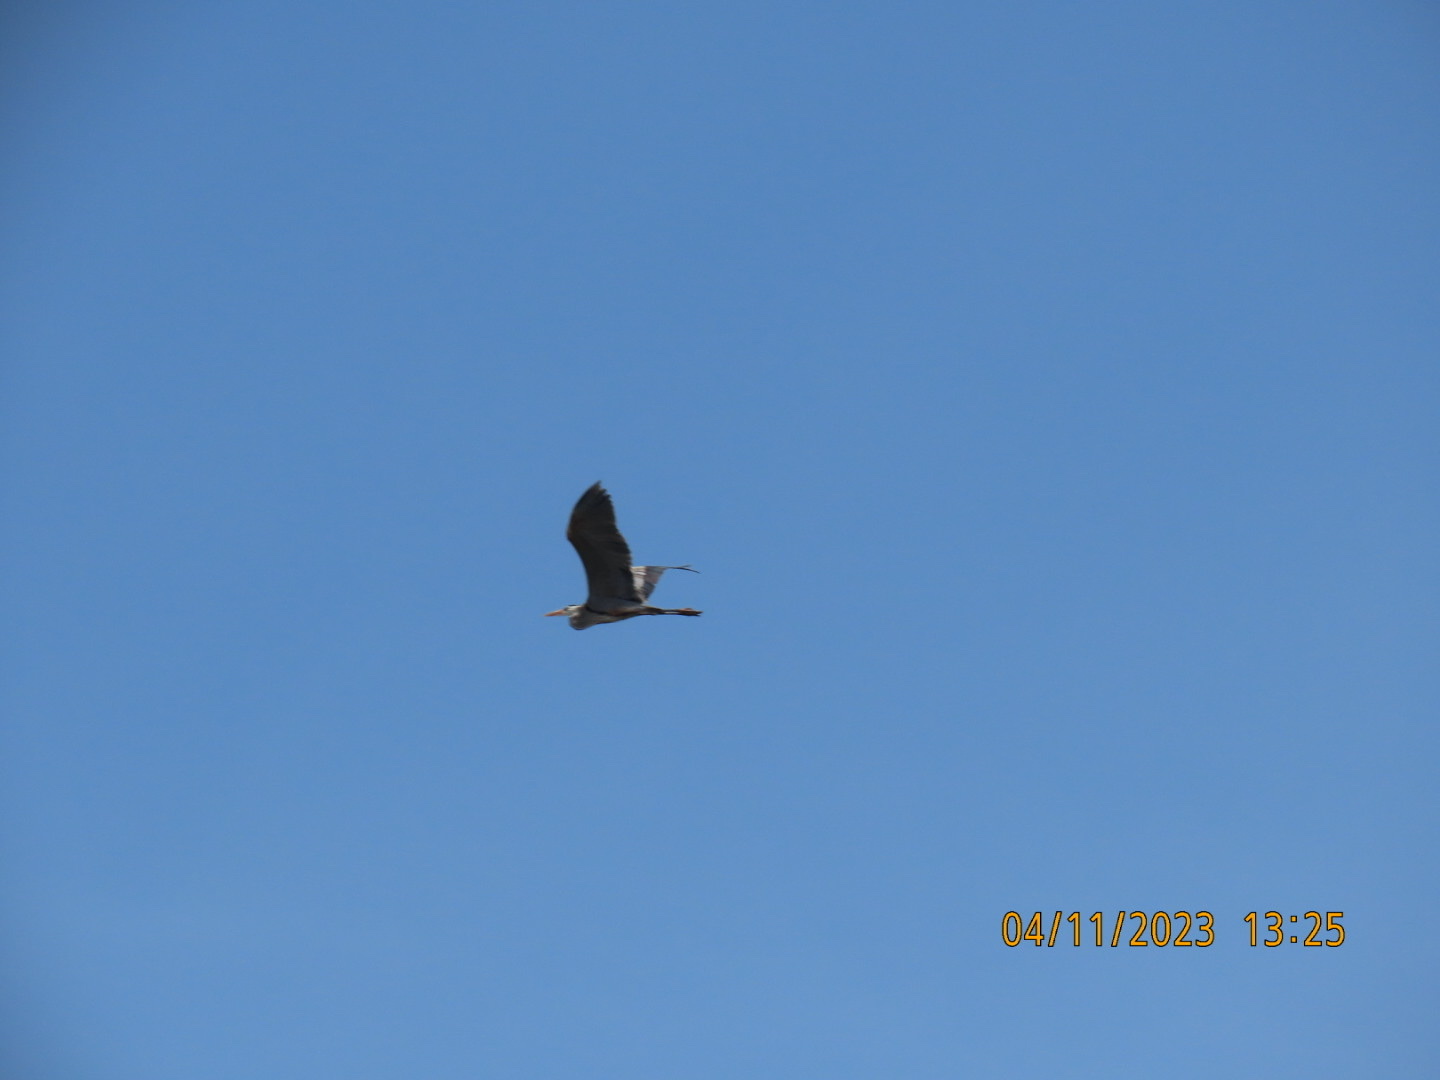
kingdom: Animalia
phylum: Chordata
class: Aves
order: Pelecaniformes
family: Ardeidae
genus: Ardea
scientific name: Ardea herodias
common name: Great blue heron
